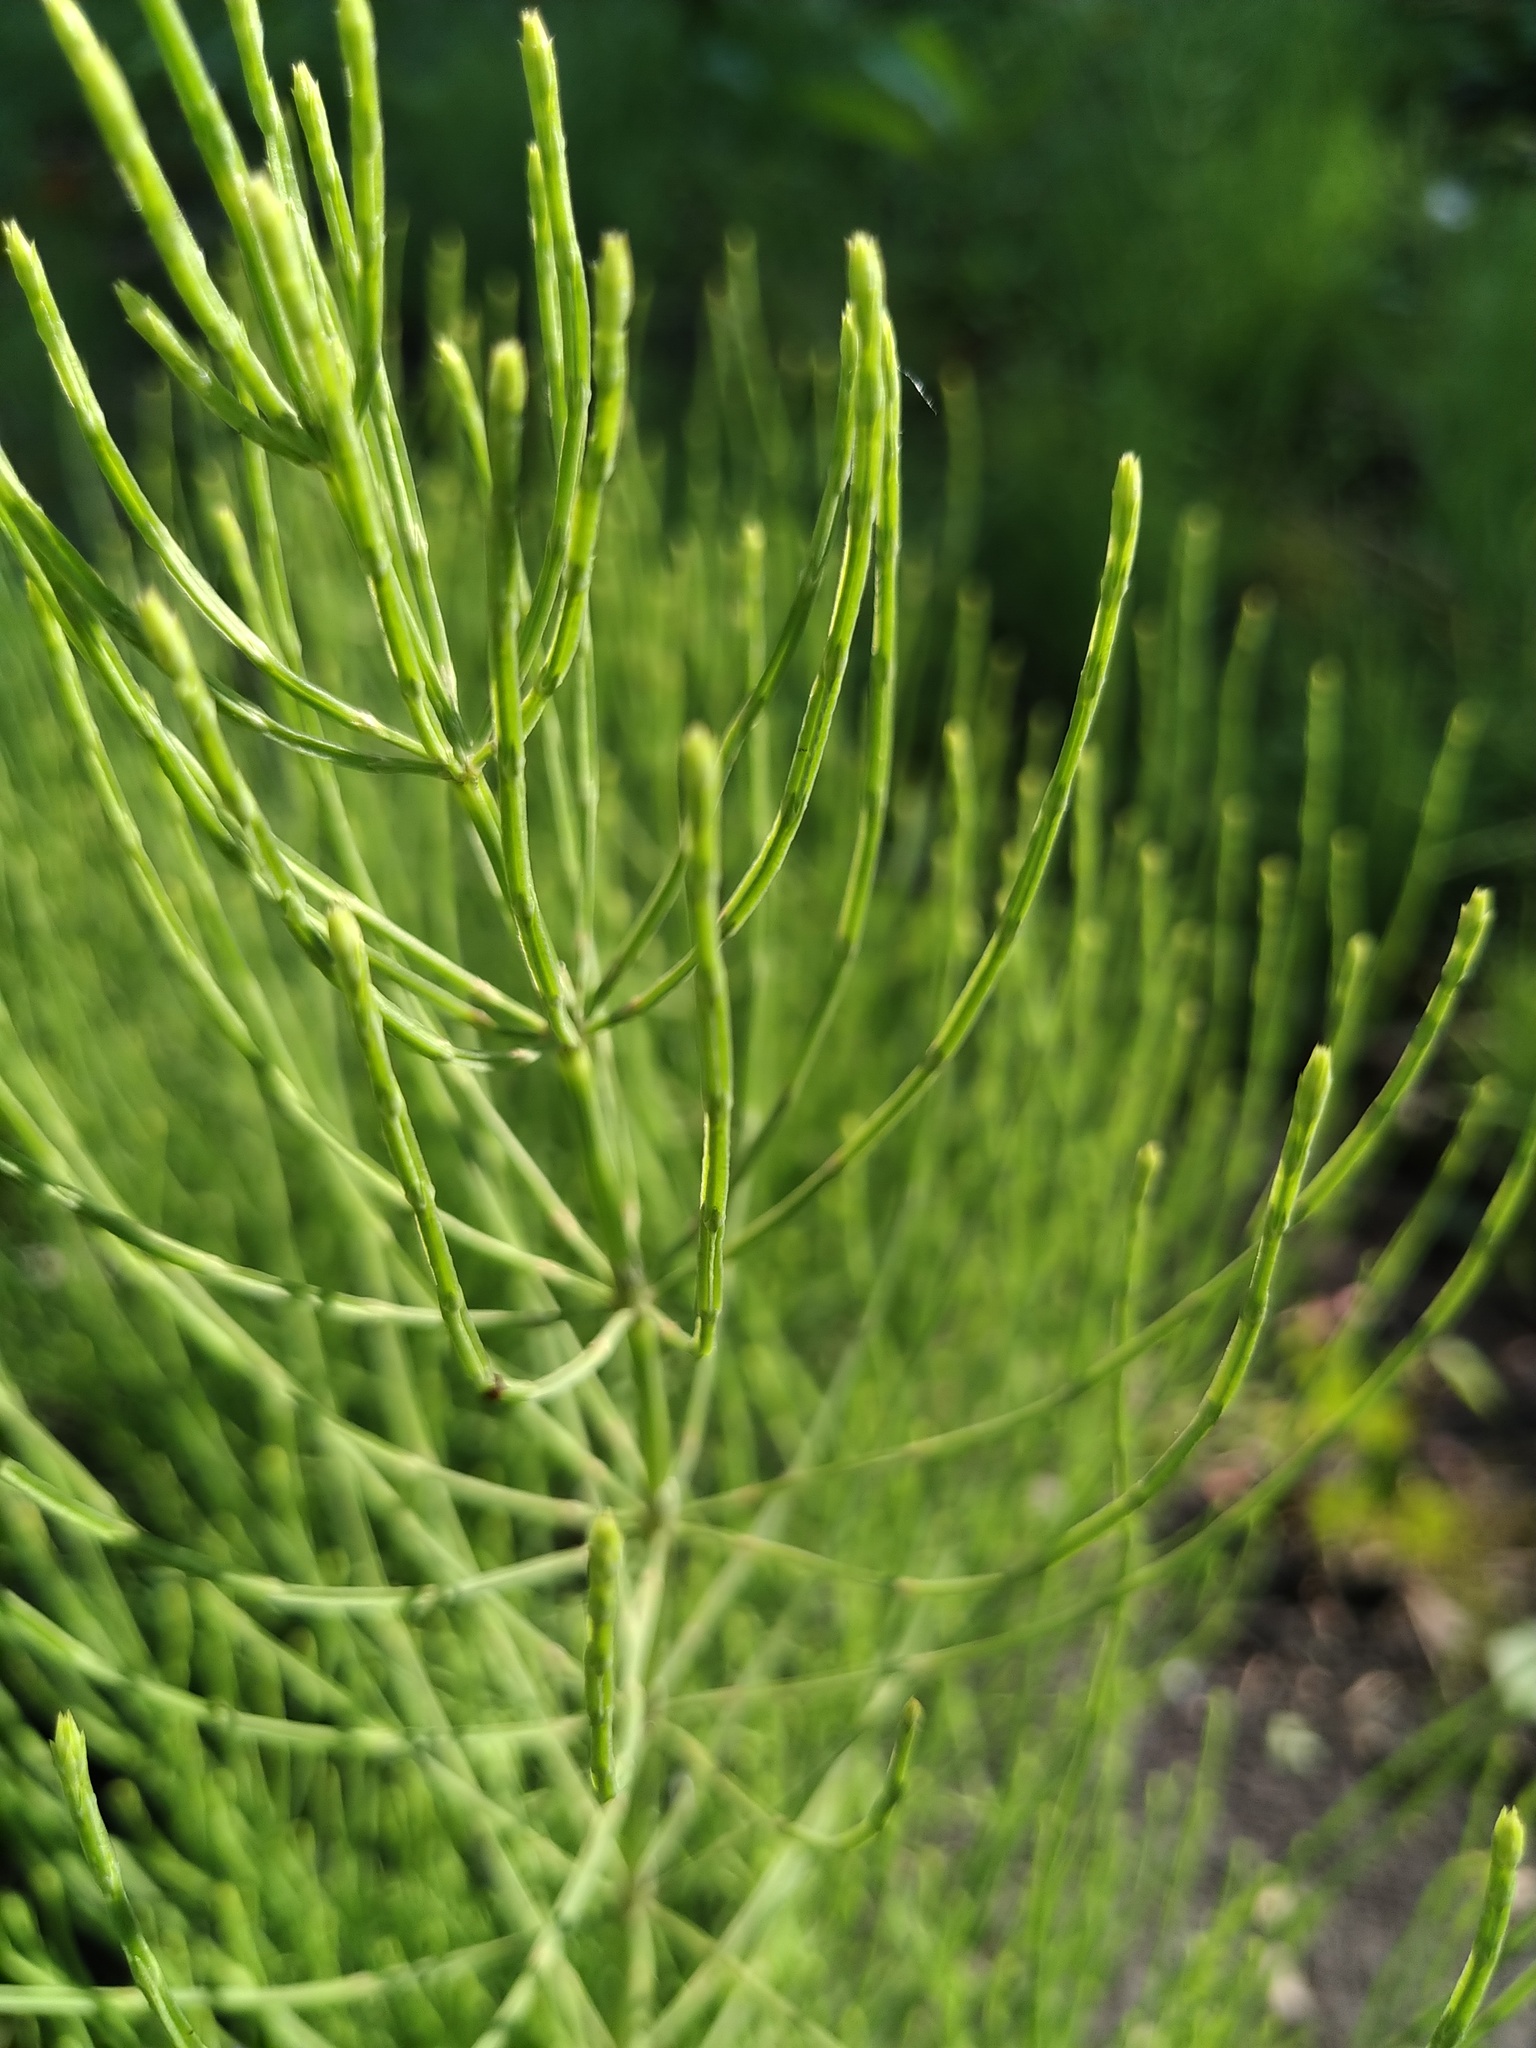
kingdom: Plantae
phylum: Tracheophyta
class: Polypodiopsida
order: Equisetales
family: Equisetaceae
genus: Equisetum
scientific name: Equisetum arvense
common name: Field horsetail
